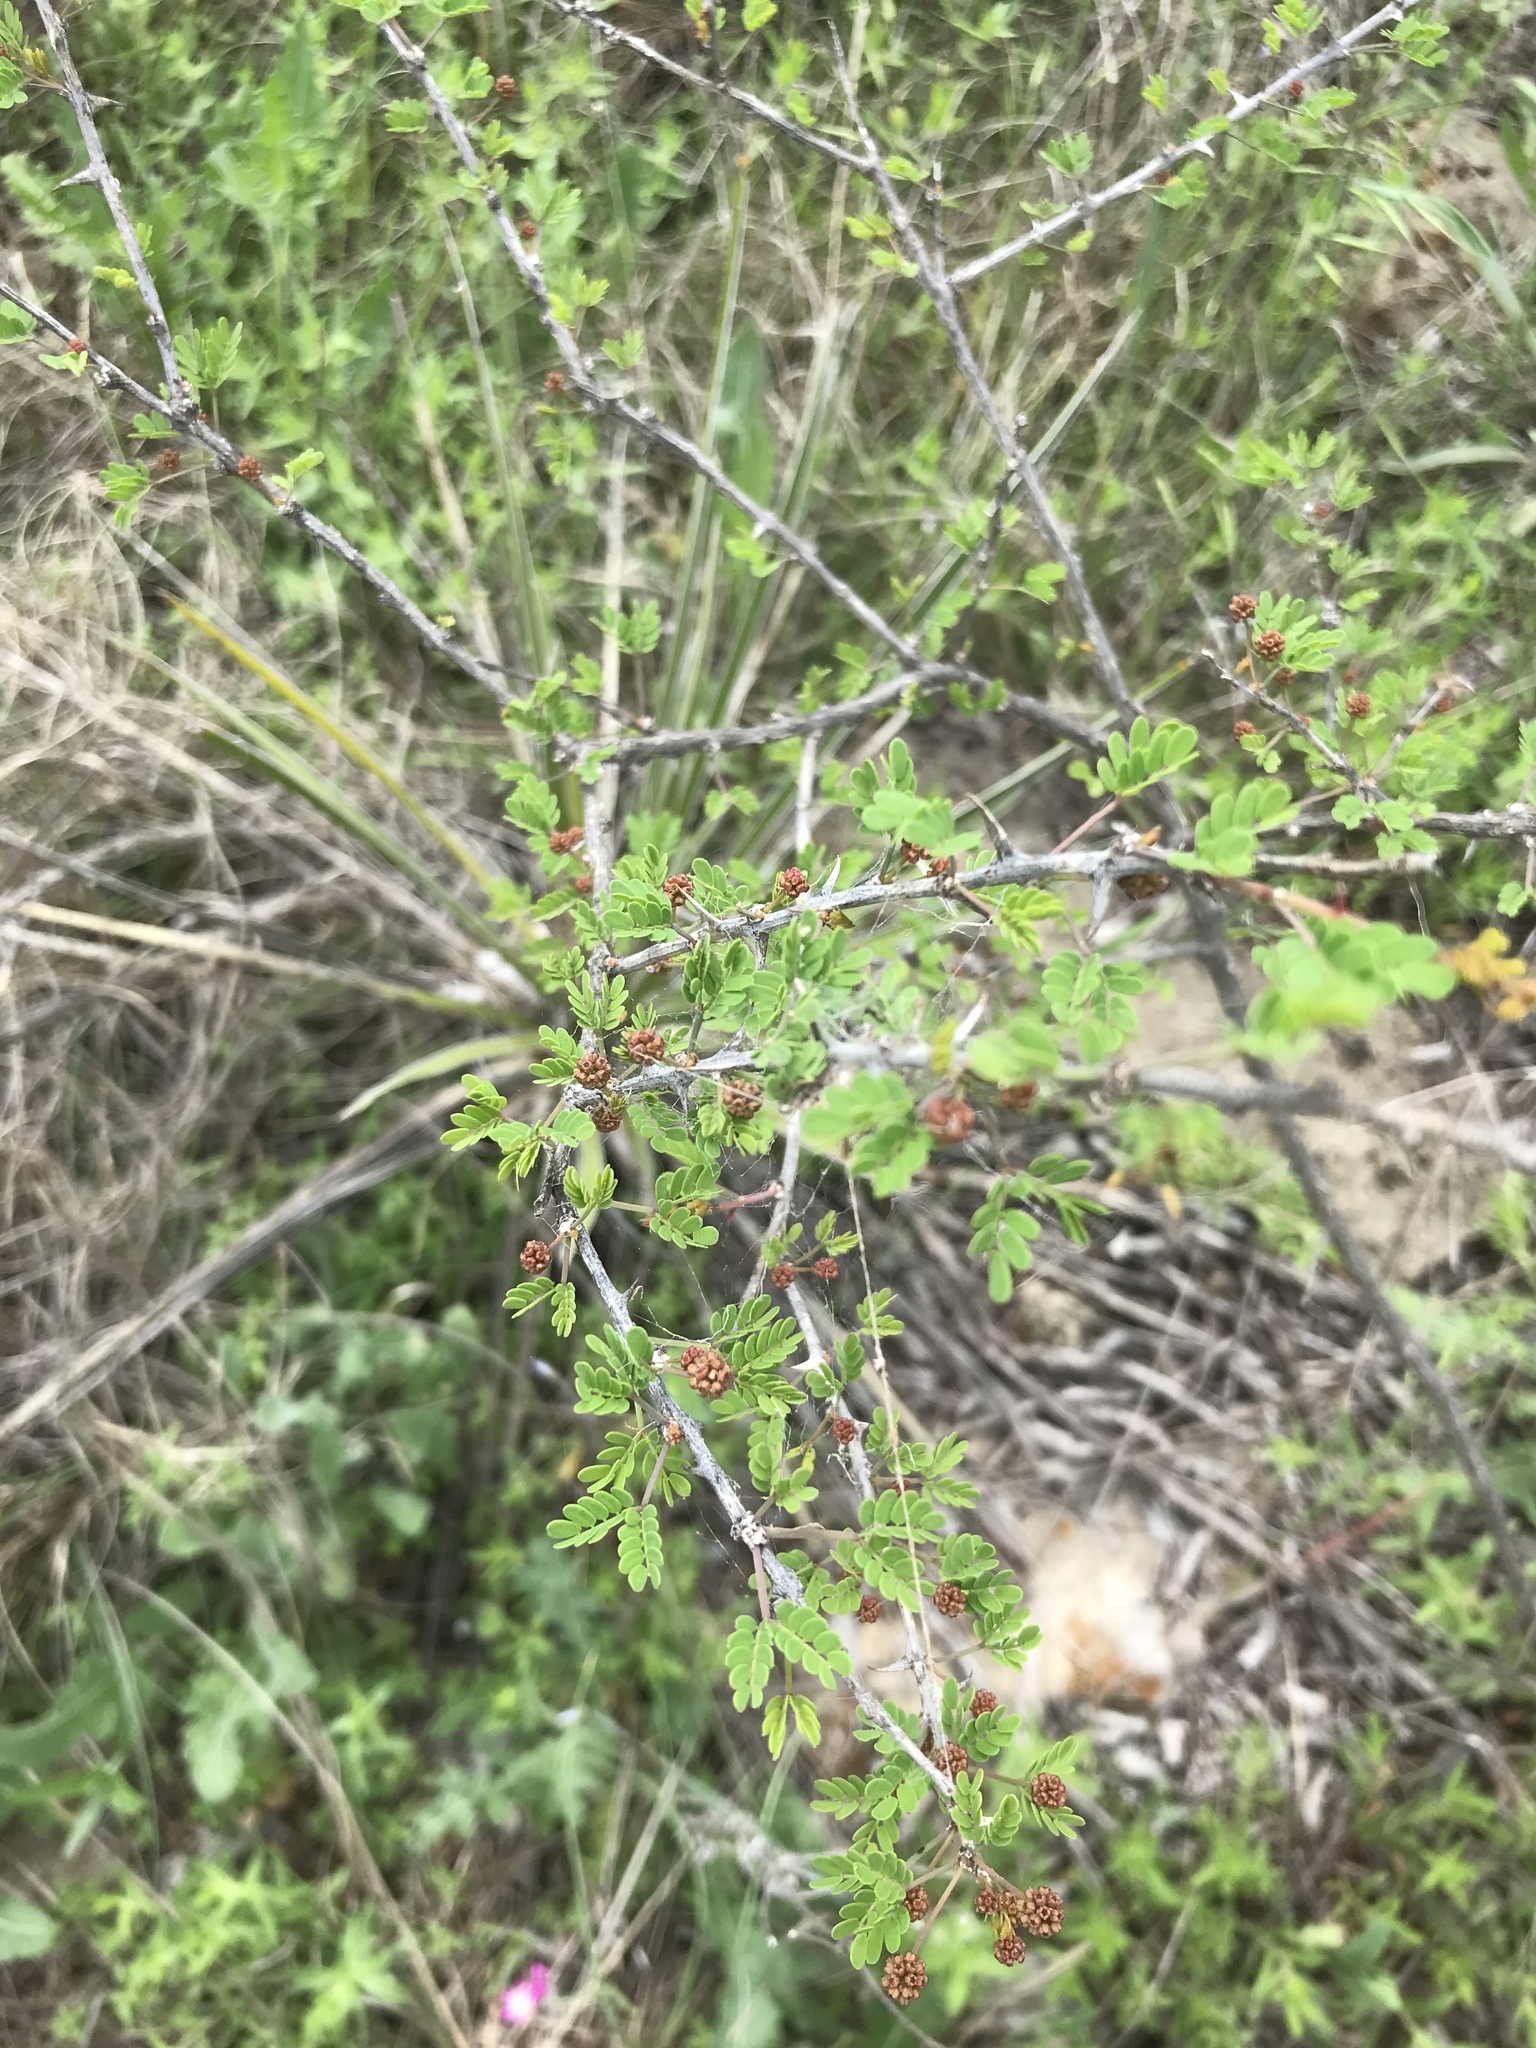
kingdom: Plantae
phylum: Tracheophyta
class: Magnoliopsida
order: Fabales
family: Fabaceae
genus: Mimosa
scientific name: Mimosa borealis
